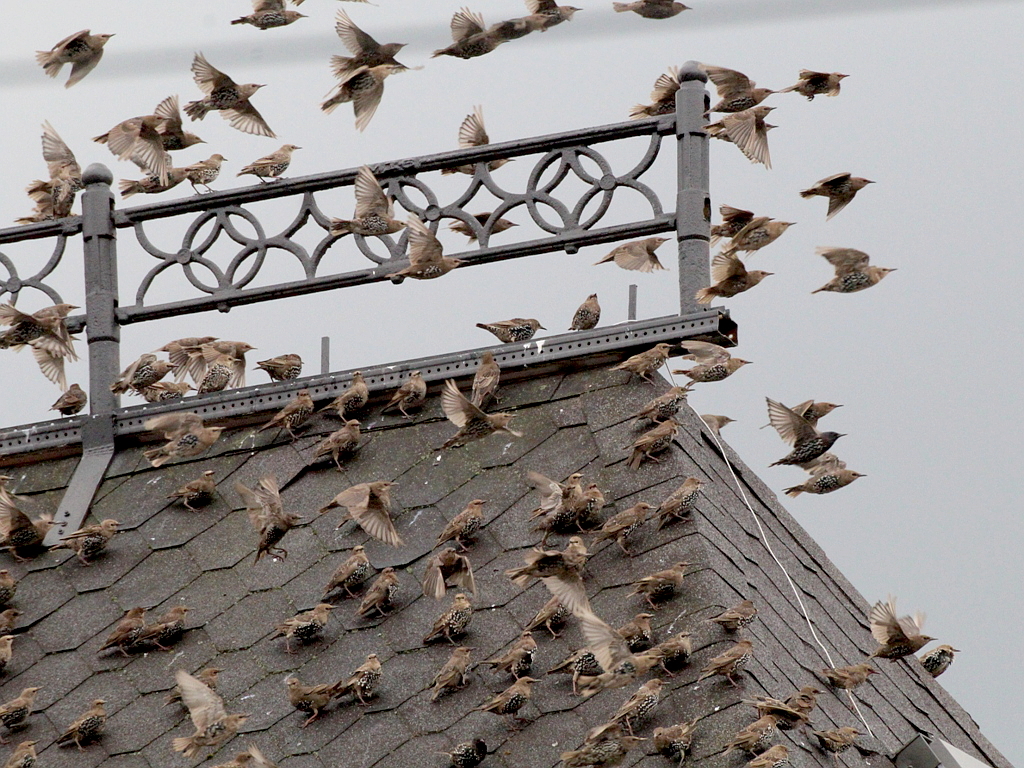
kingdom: Animalia
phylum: Chordata
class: Aves
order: Passeriformes
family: Sturnidae
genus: Sturnus
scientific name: Sturnus vulgaris
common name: Common starling
